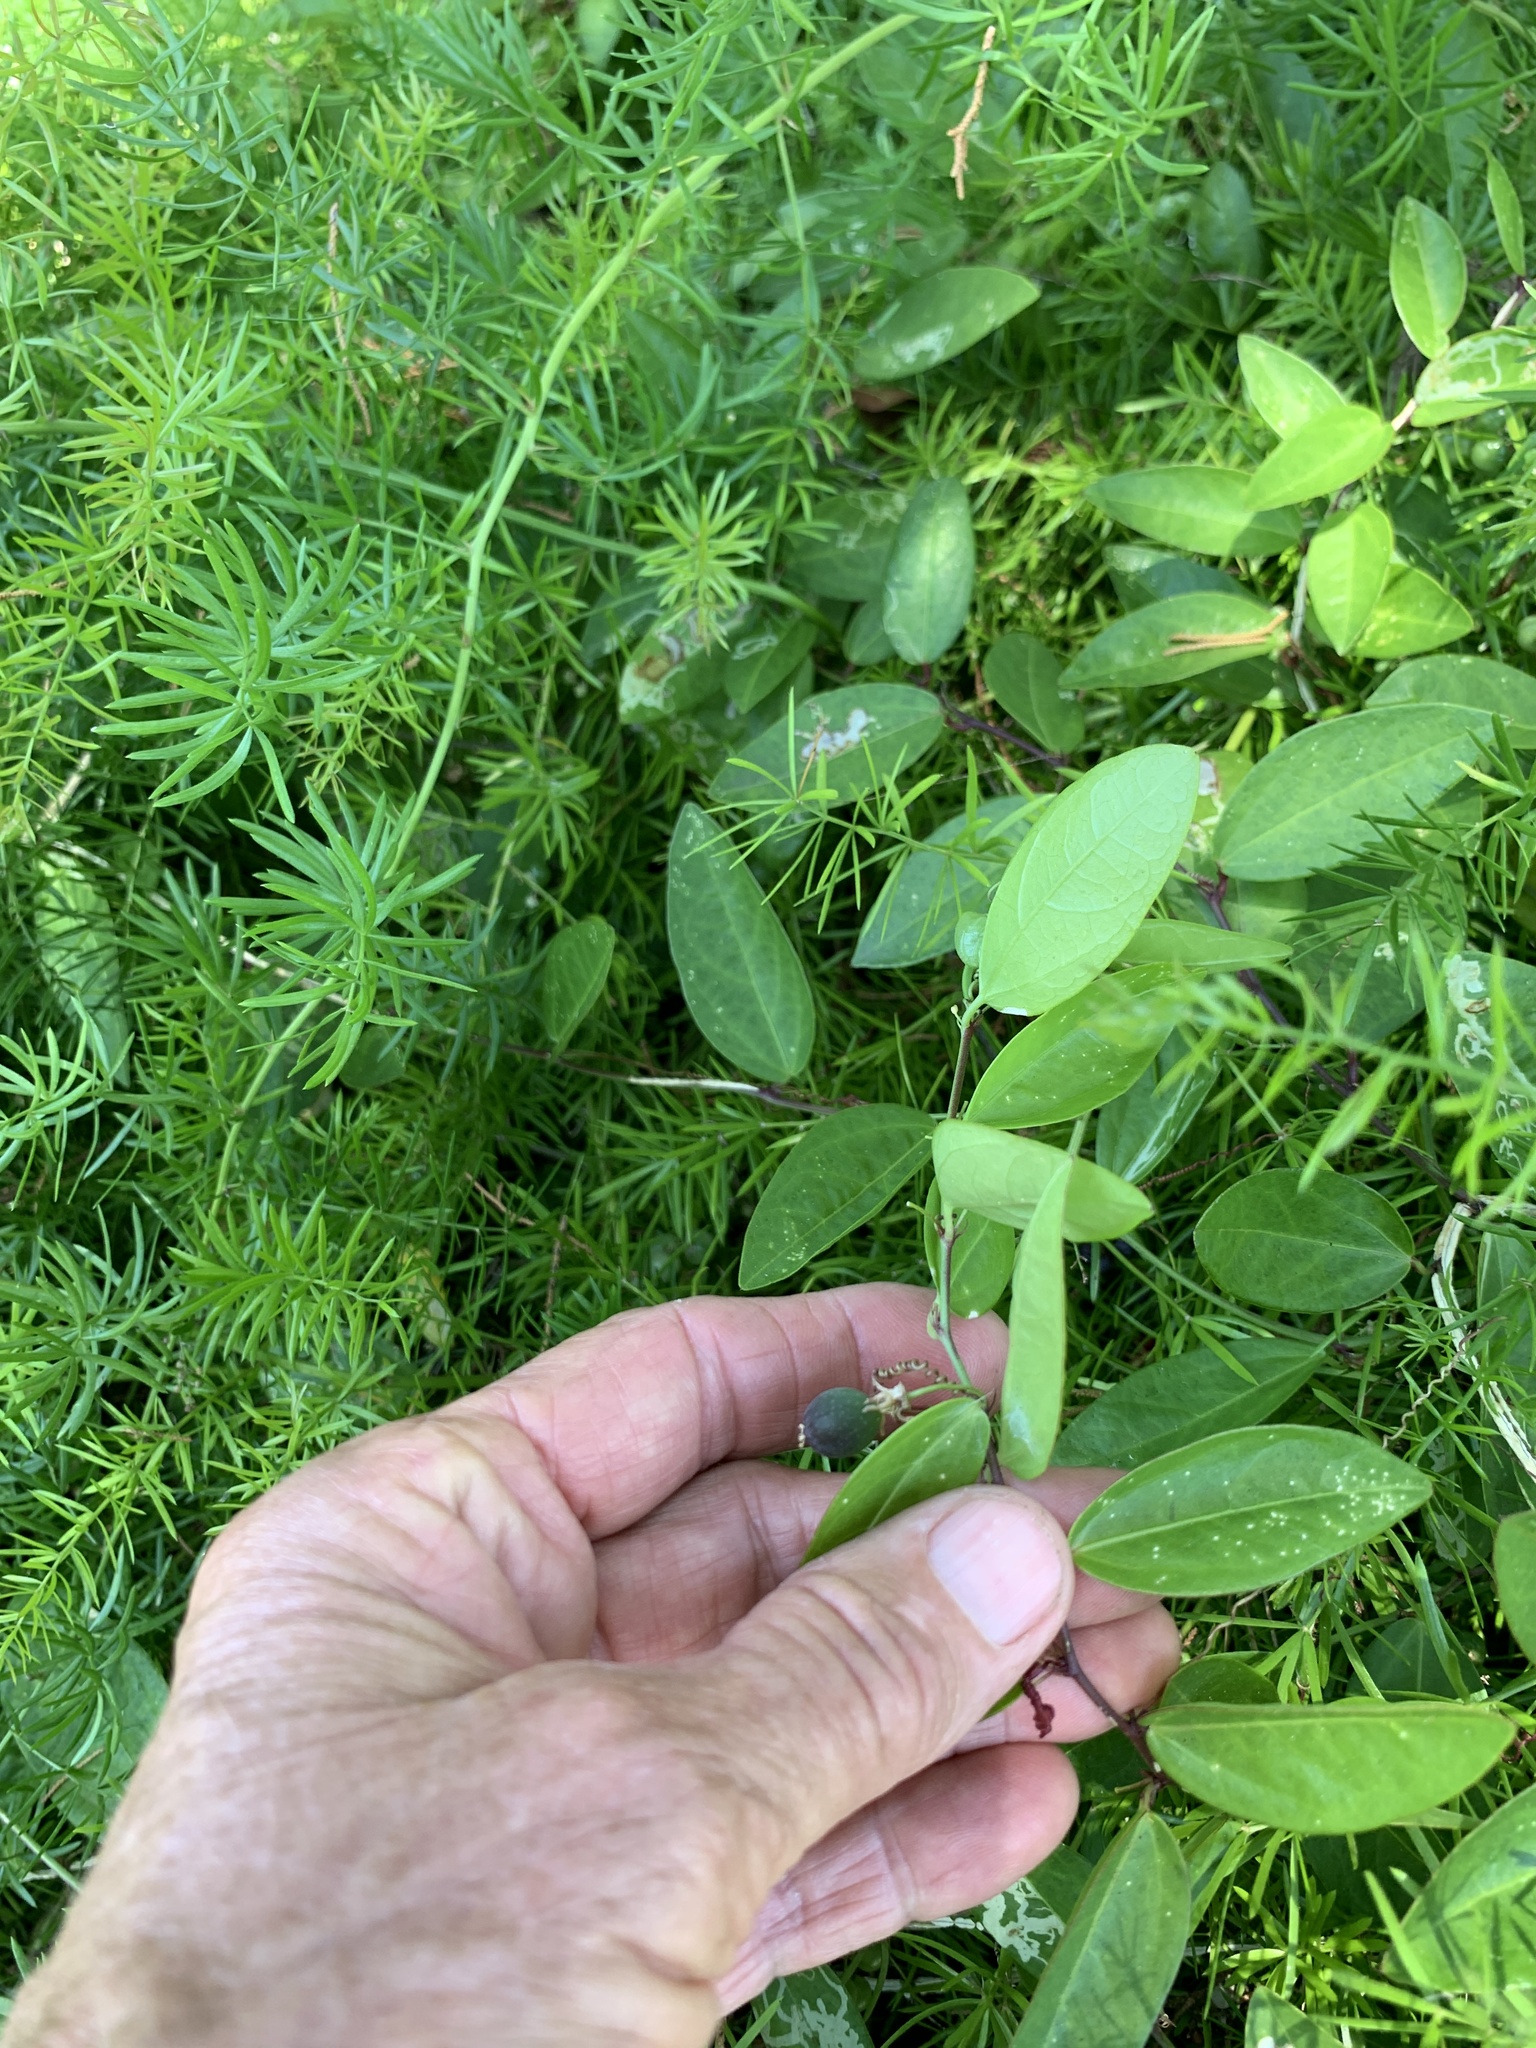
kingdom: Plantae
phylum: Tracheophyta
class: Magnoliopsida
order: Malpighiales
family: Passifloraceae
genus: Passiflora
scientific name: Passiflora pallida
